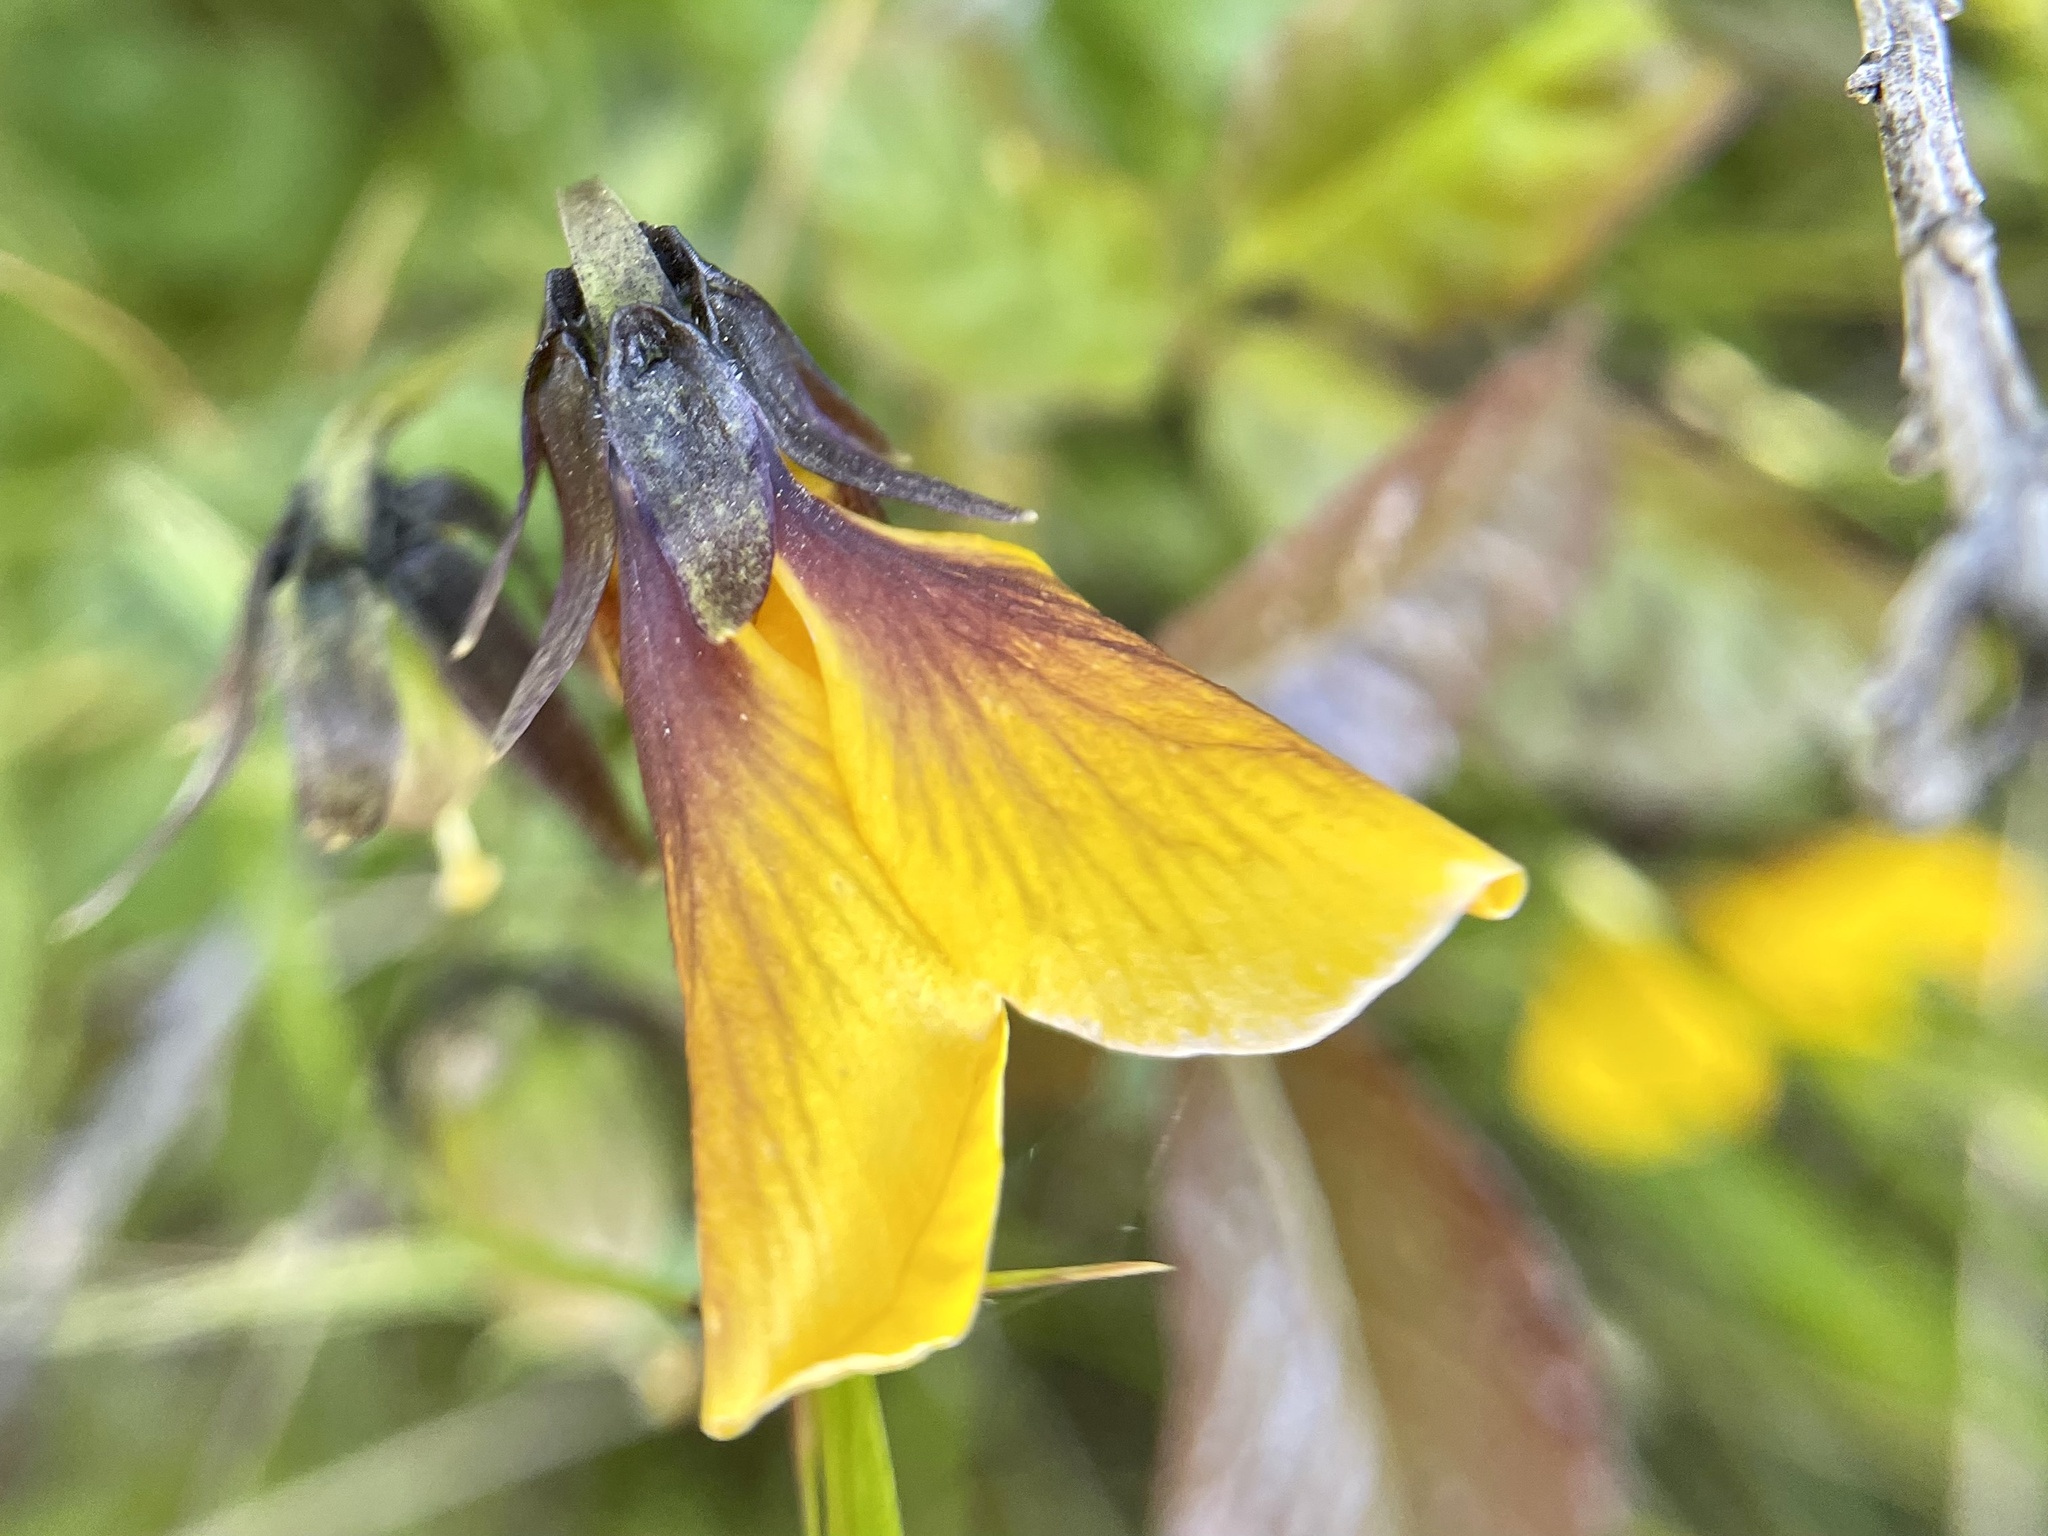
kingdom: Plantae
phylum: Tracheophyta
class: Magnoliopsida
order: Malpighiales
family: Violaceae
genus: Viola
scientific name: Viola pedunculata
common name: California golden violet
